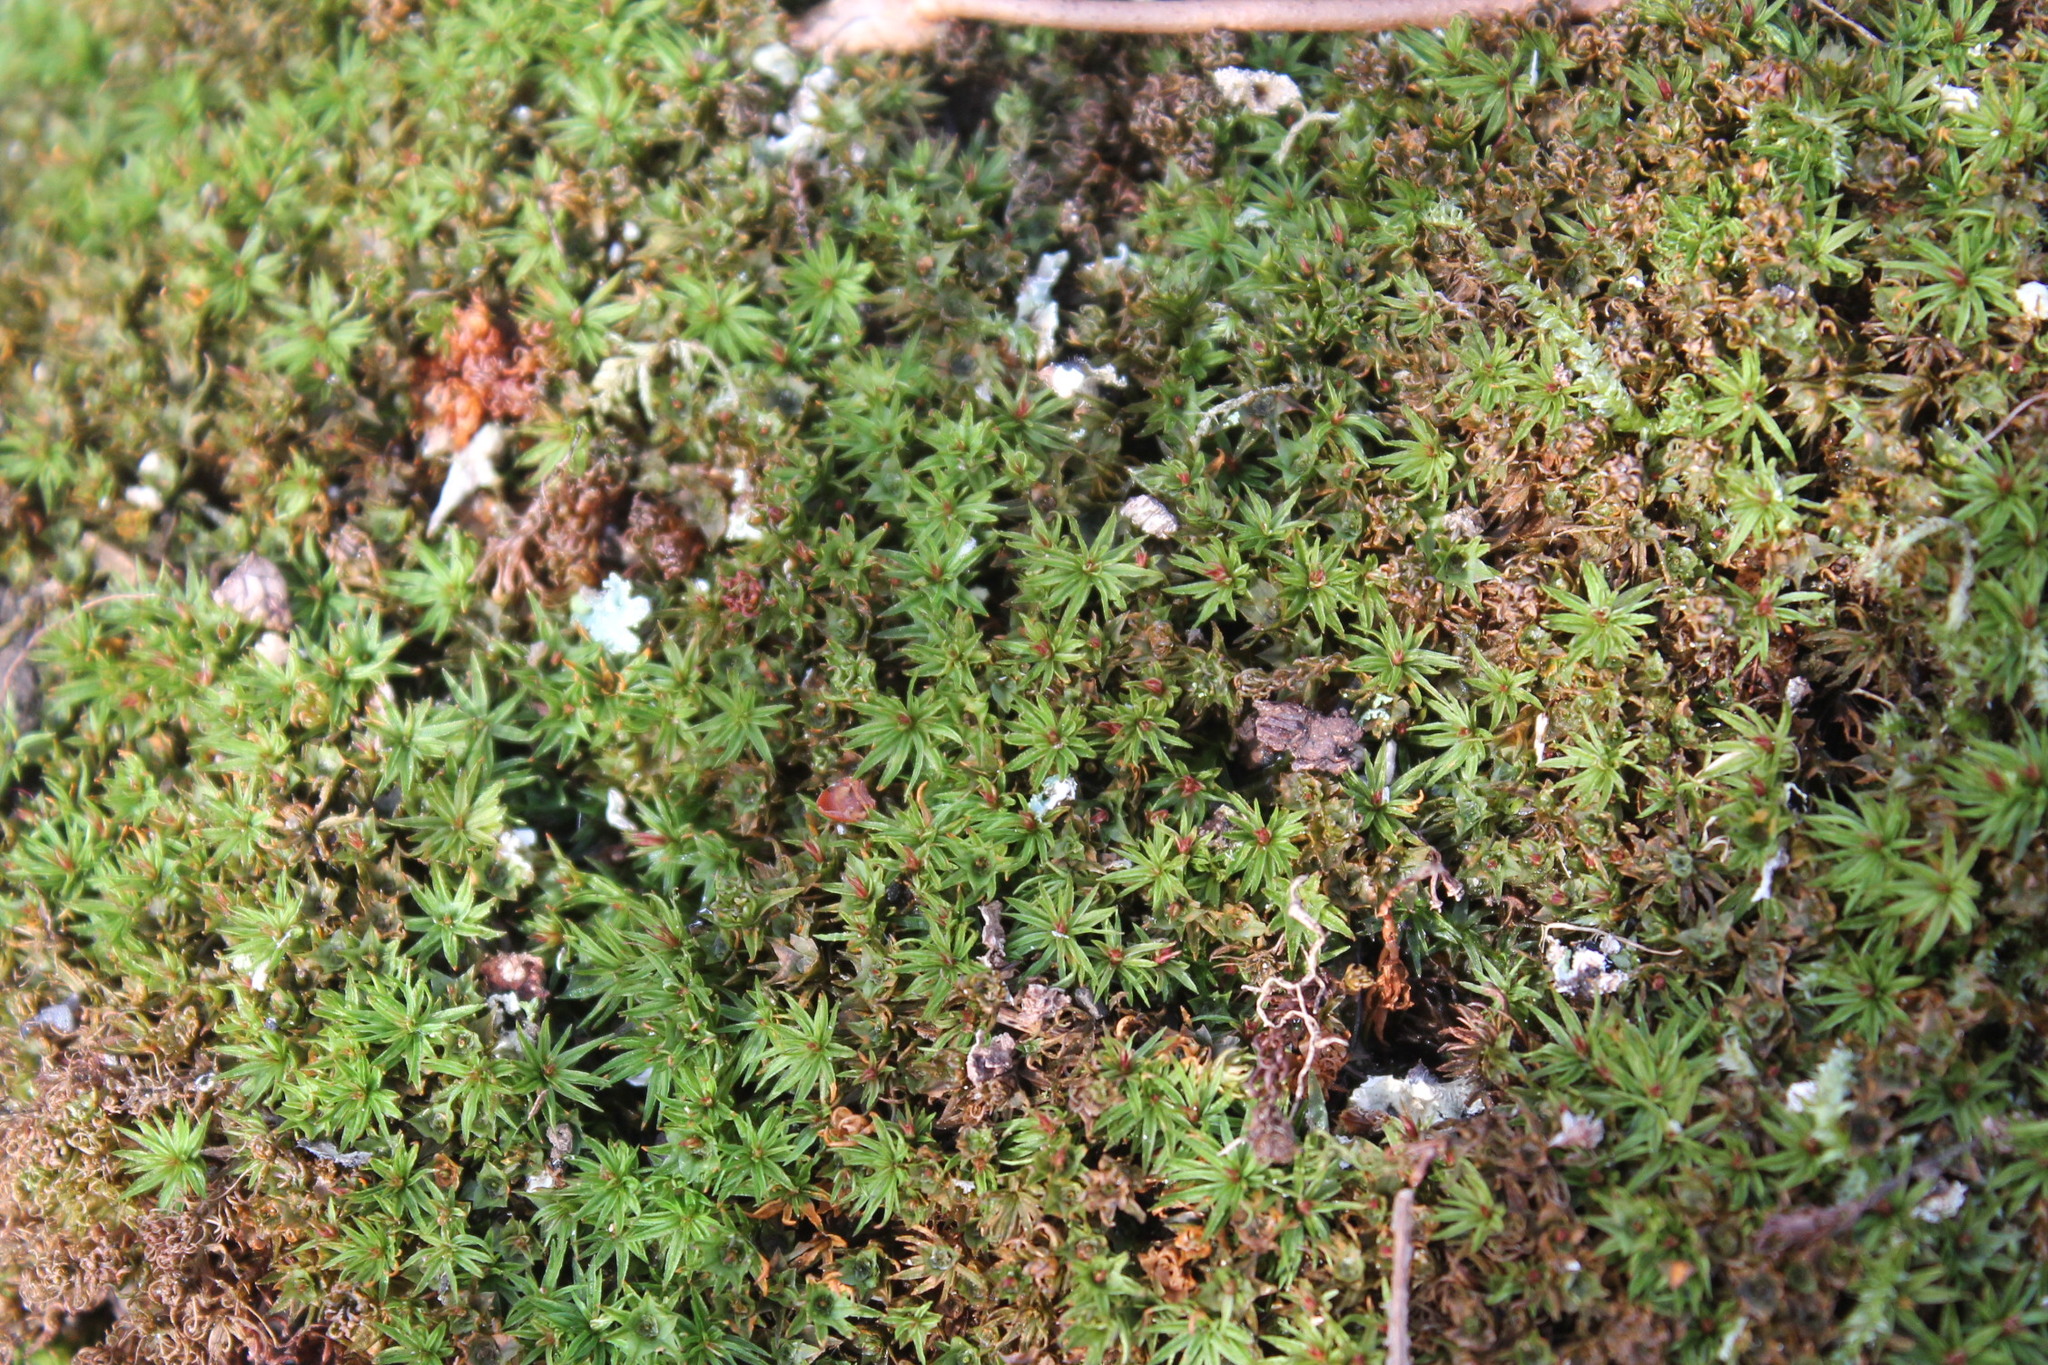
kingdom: Plantae
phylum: Bryophyta
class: Polytrichopsida
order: Polytrichales
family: Polytrichaceae
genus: Atrichum
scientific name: Atrichum angustatum
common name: Lesser smoothcap
